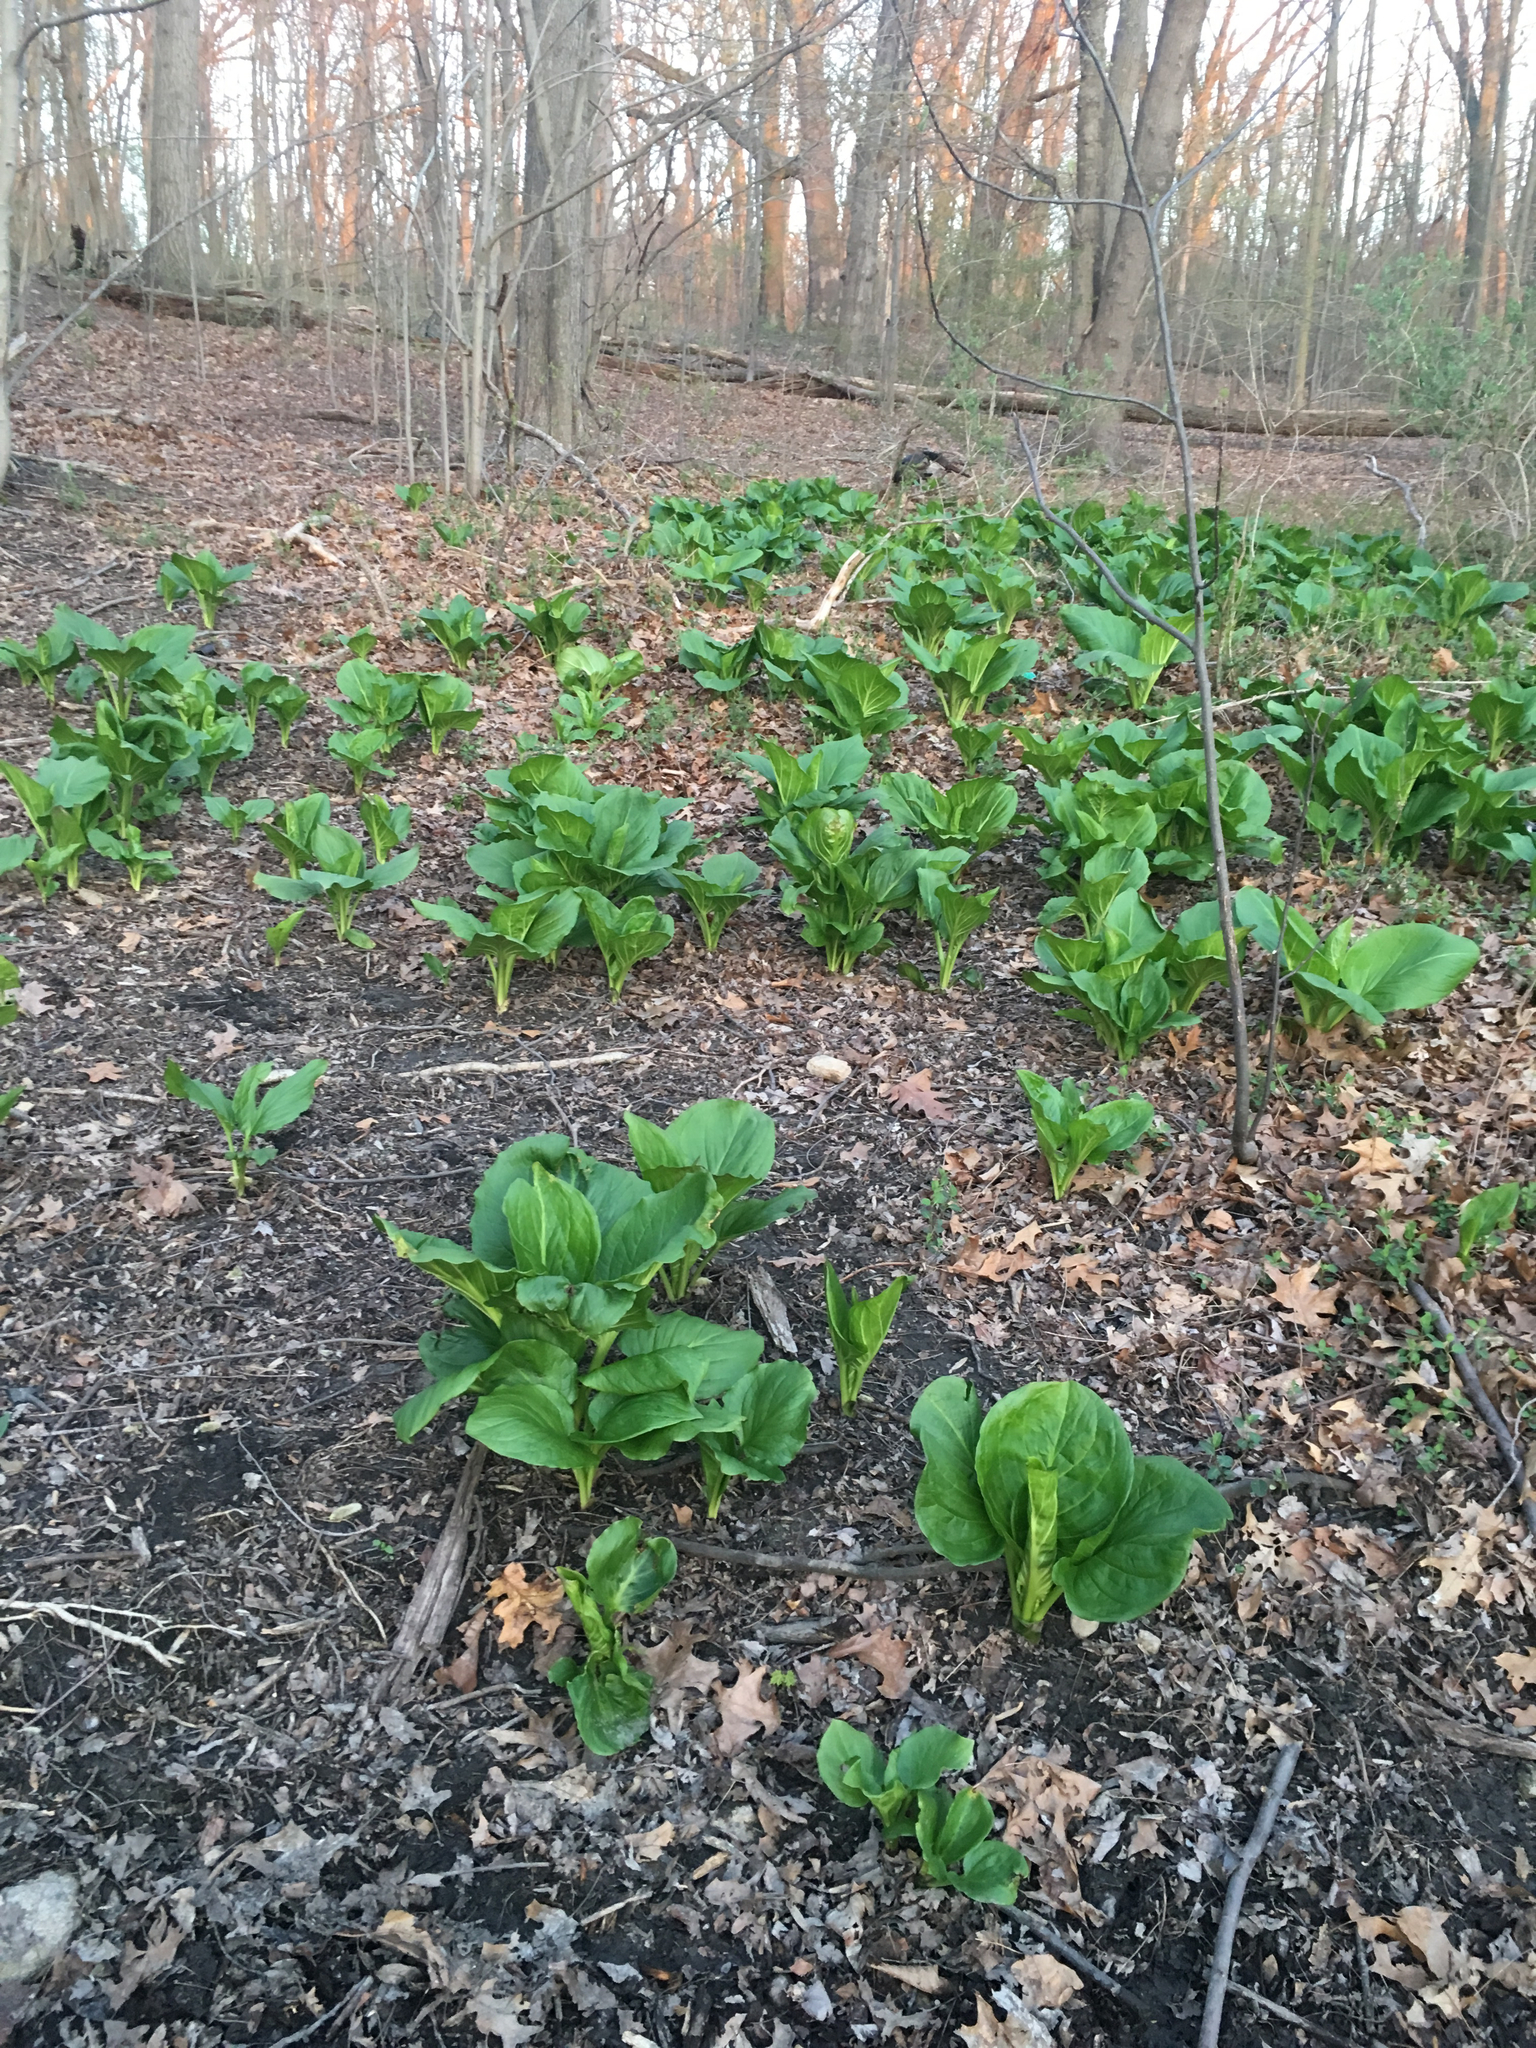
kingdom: Plantae
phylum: Tracheophyta
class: Liliopsida
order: Alismatales
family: Araceae
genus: Symplocarpus
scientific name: Symplocarpus foetidus
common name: Eastern skunk cabbage
